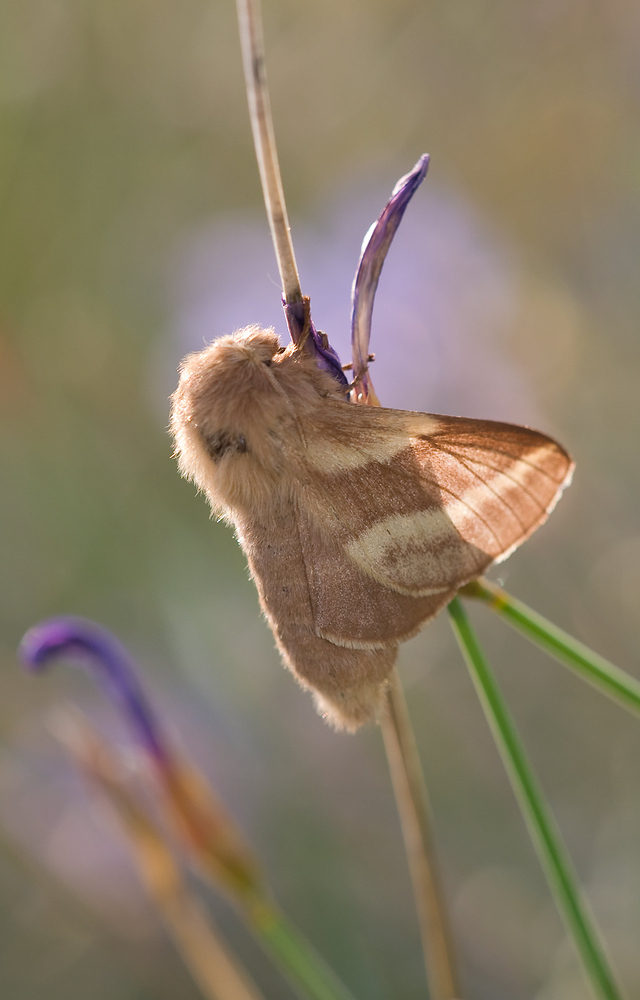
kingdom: Animalia
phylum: Arthropoda
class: Insecta
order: Lepidoptera
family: Lasiocampidae
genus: Malacosoma
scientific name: Malacosoma castrense
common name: Ground lackey
